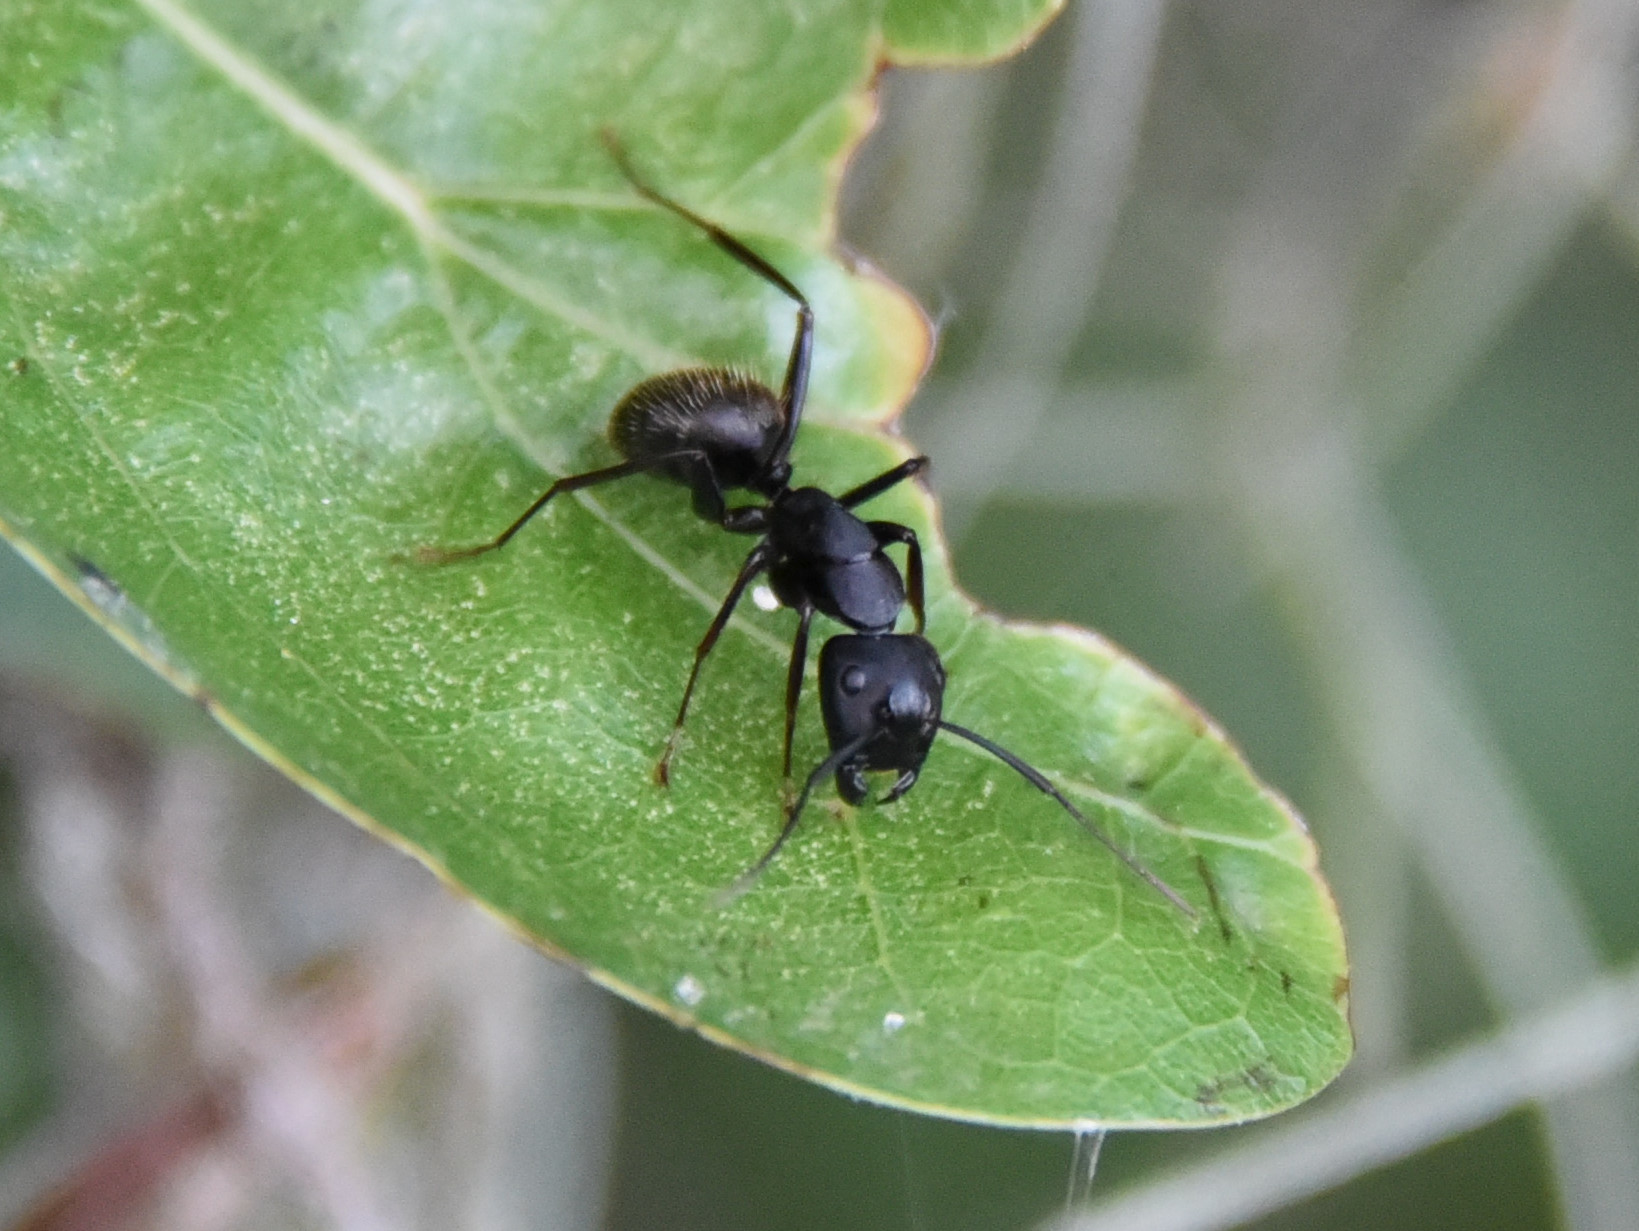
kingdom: Animalia
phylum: Arthropoda
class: Insecta
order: Hymenoptera
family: Formicidae
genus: Camponotus
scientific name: Camponotus pennsylvanicus
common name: Black carpenter ant
